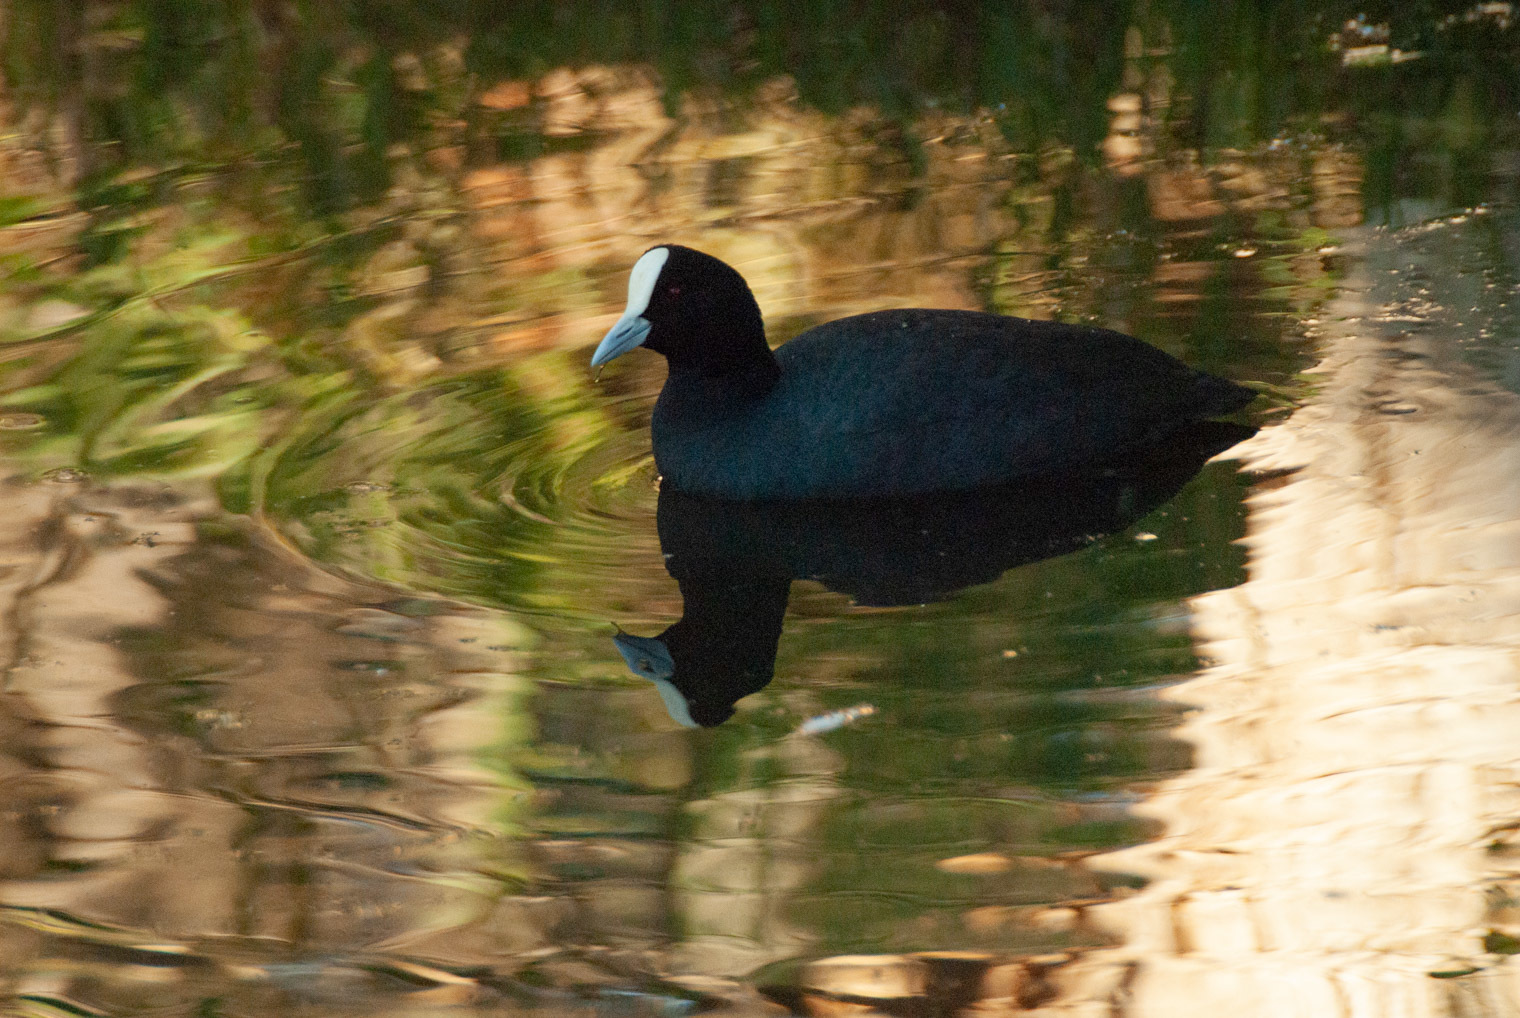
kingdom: Animalia
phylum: Chordata
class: Aves
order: Gruiformes
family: Rallidae
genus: Fulica
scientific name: Fulica atra
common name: Eurasian coot
